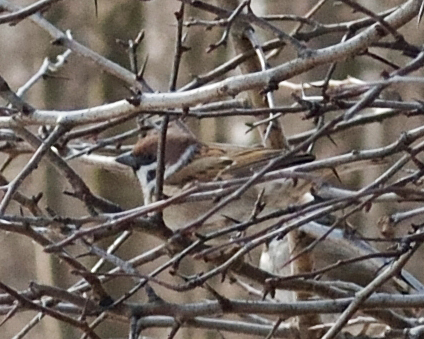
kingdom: Animalia
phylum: Chordata
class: Aves
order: Passeriformes
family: Passeridae
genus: Passer
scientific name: Passer montanus
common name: Eurasian tree sparrow
